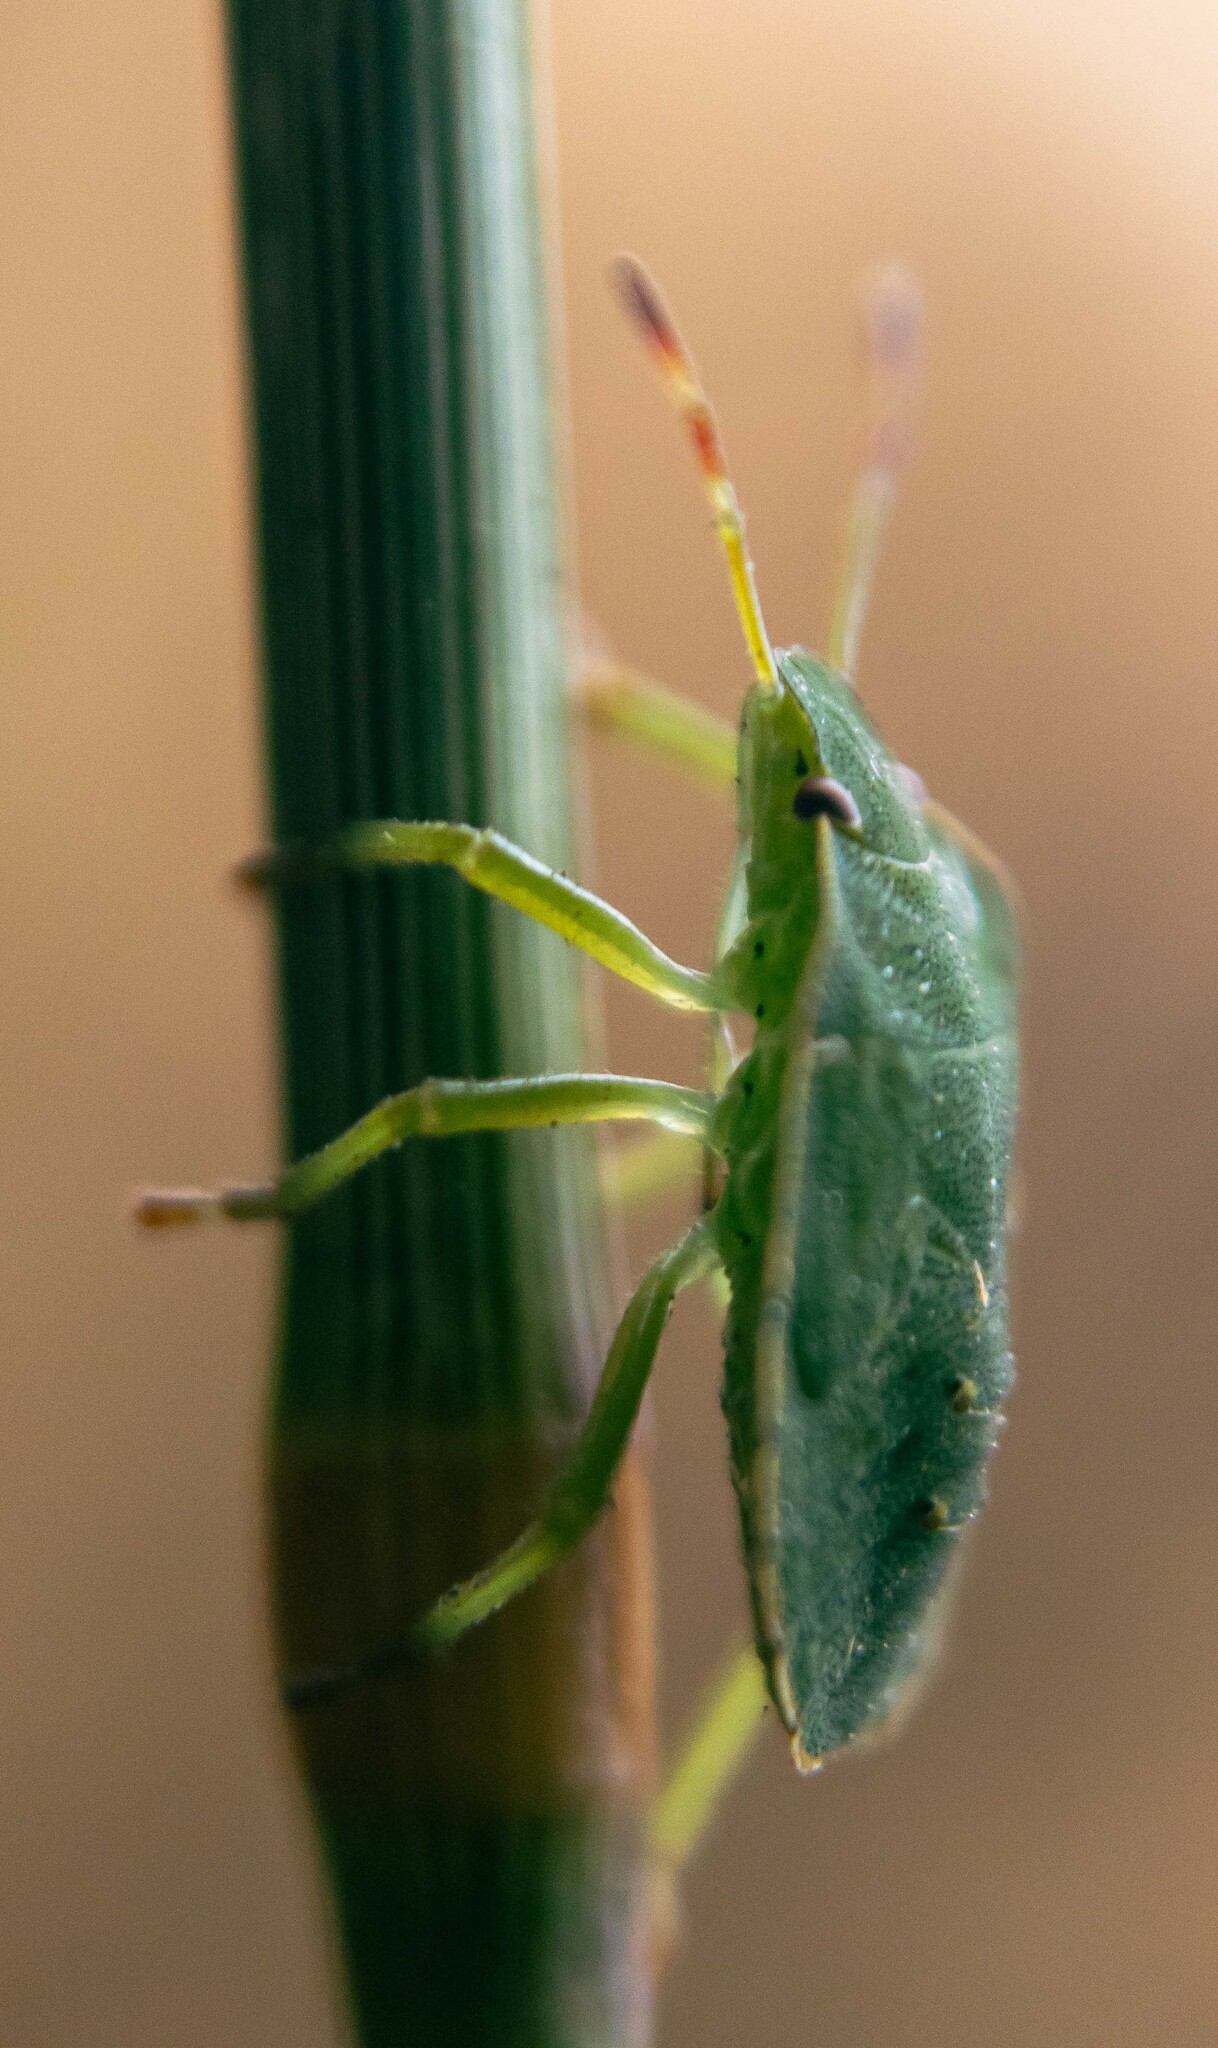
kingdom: Animalia
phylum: Arthropoda
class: Insecta
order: Hemiptera
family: Pentatomidae
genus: Palomena
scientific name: Palomena prasina
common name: Green shieldbug
